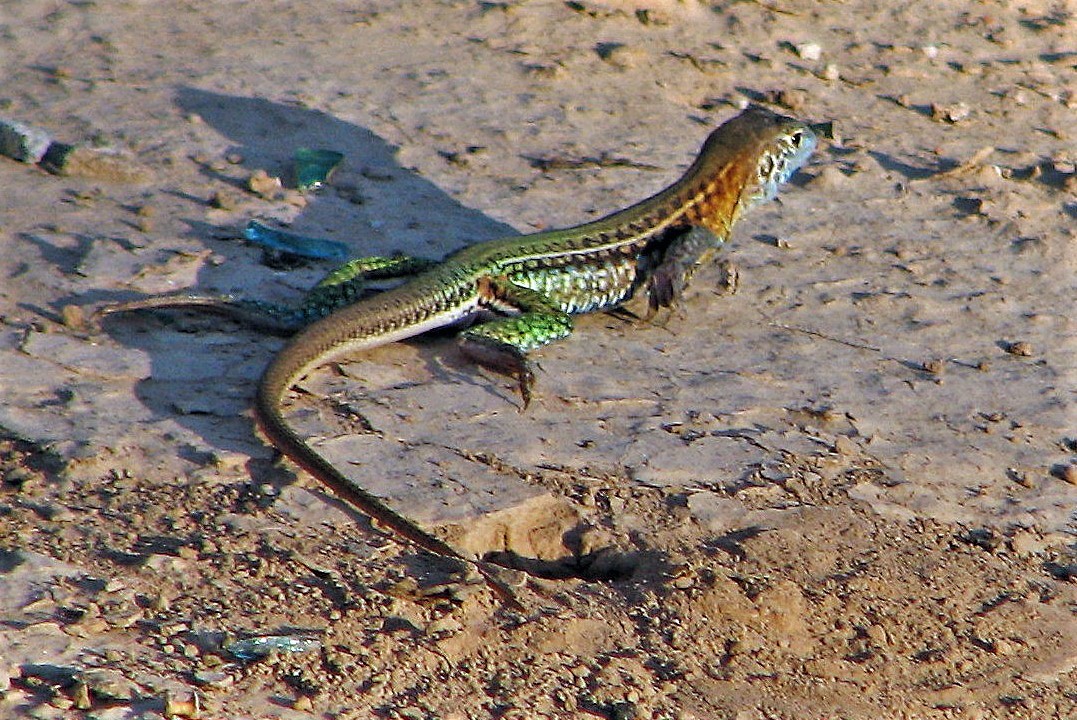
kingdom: Animalia
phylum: Chordata
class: Squamata
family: Teiidae
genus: Teius
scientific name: Teius teyou
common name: Four-toed tegu
